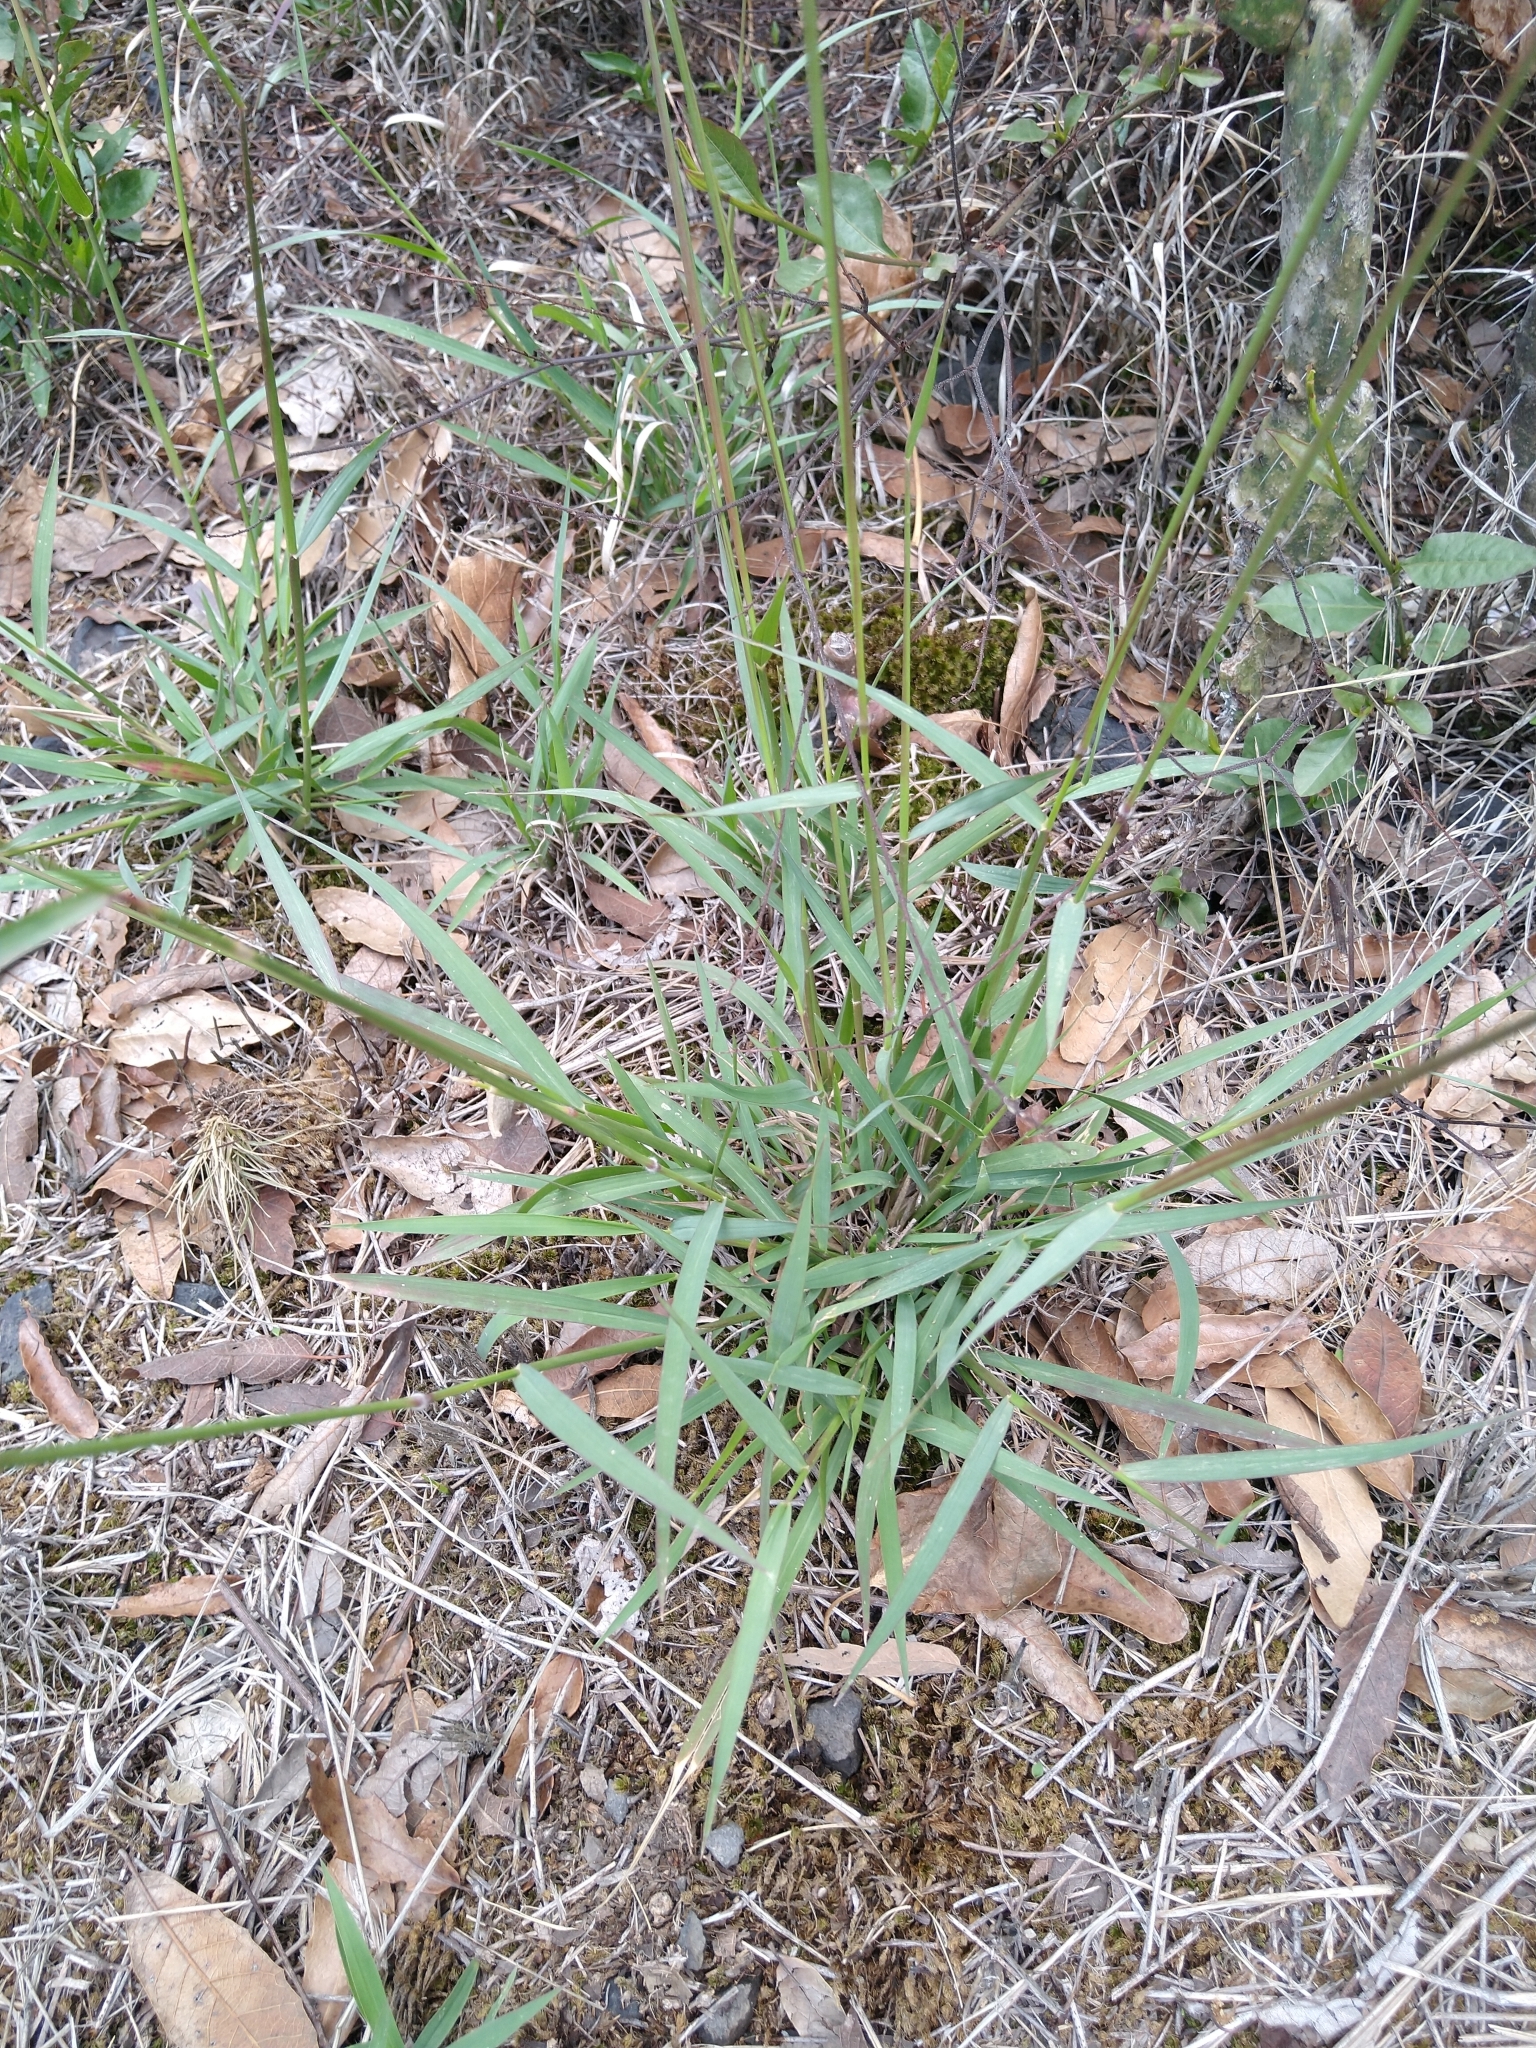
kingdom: Plantae
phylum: Tracheophyta
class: Liliopsida
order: Poales
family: Poaceae
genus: Melinis
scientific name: Melinis repens
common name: Rose natal grass
